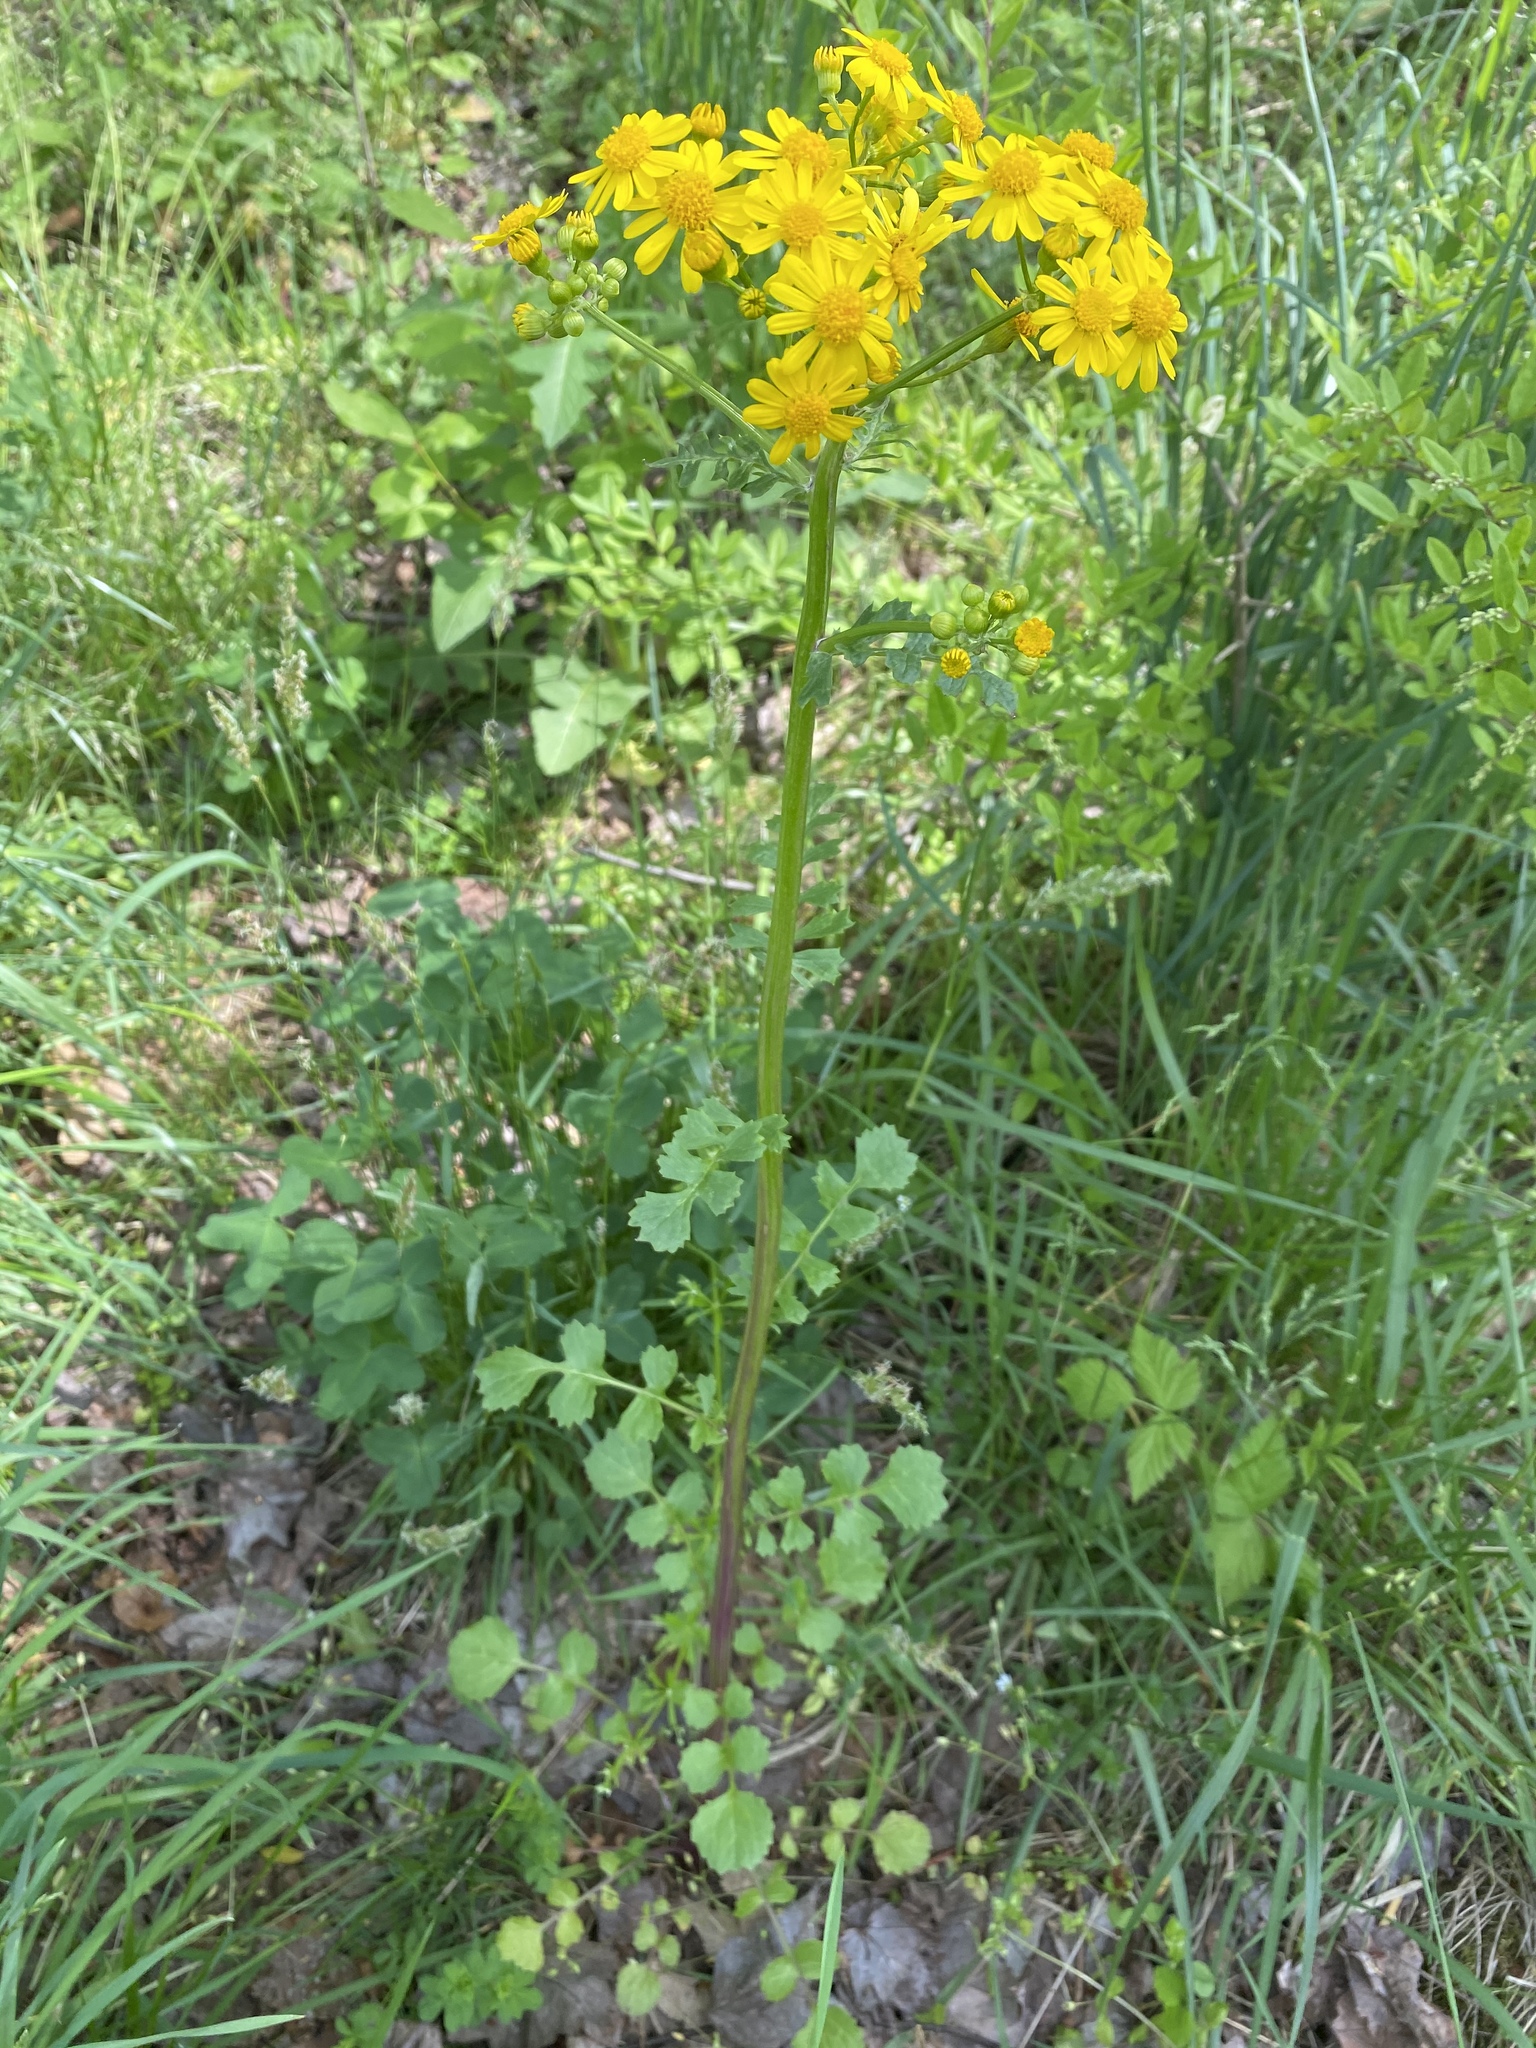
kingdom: Plantae
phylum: Tracheophyta
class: Magnoliopsida
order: Asterales
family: Asteraceae
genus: Packera
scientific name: Packera glabella
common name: Butterweed
